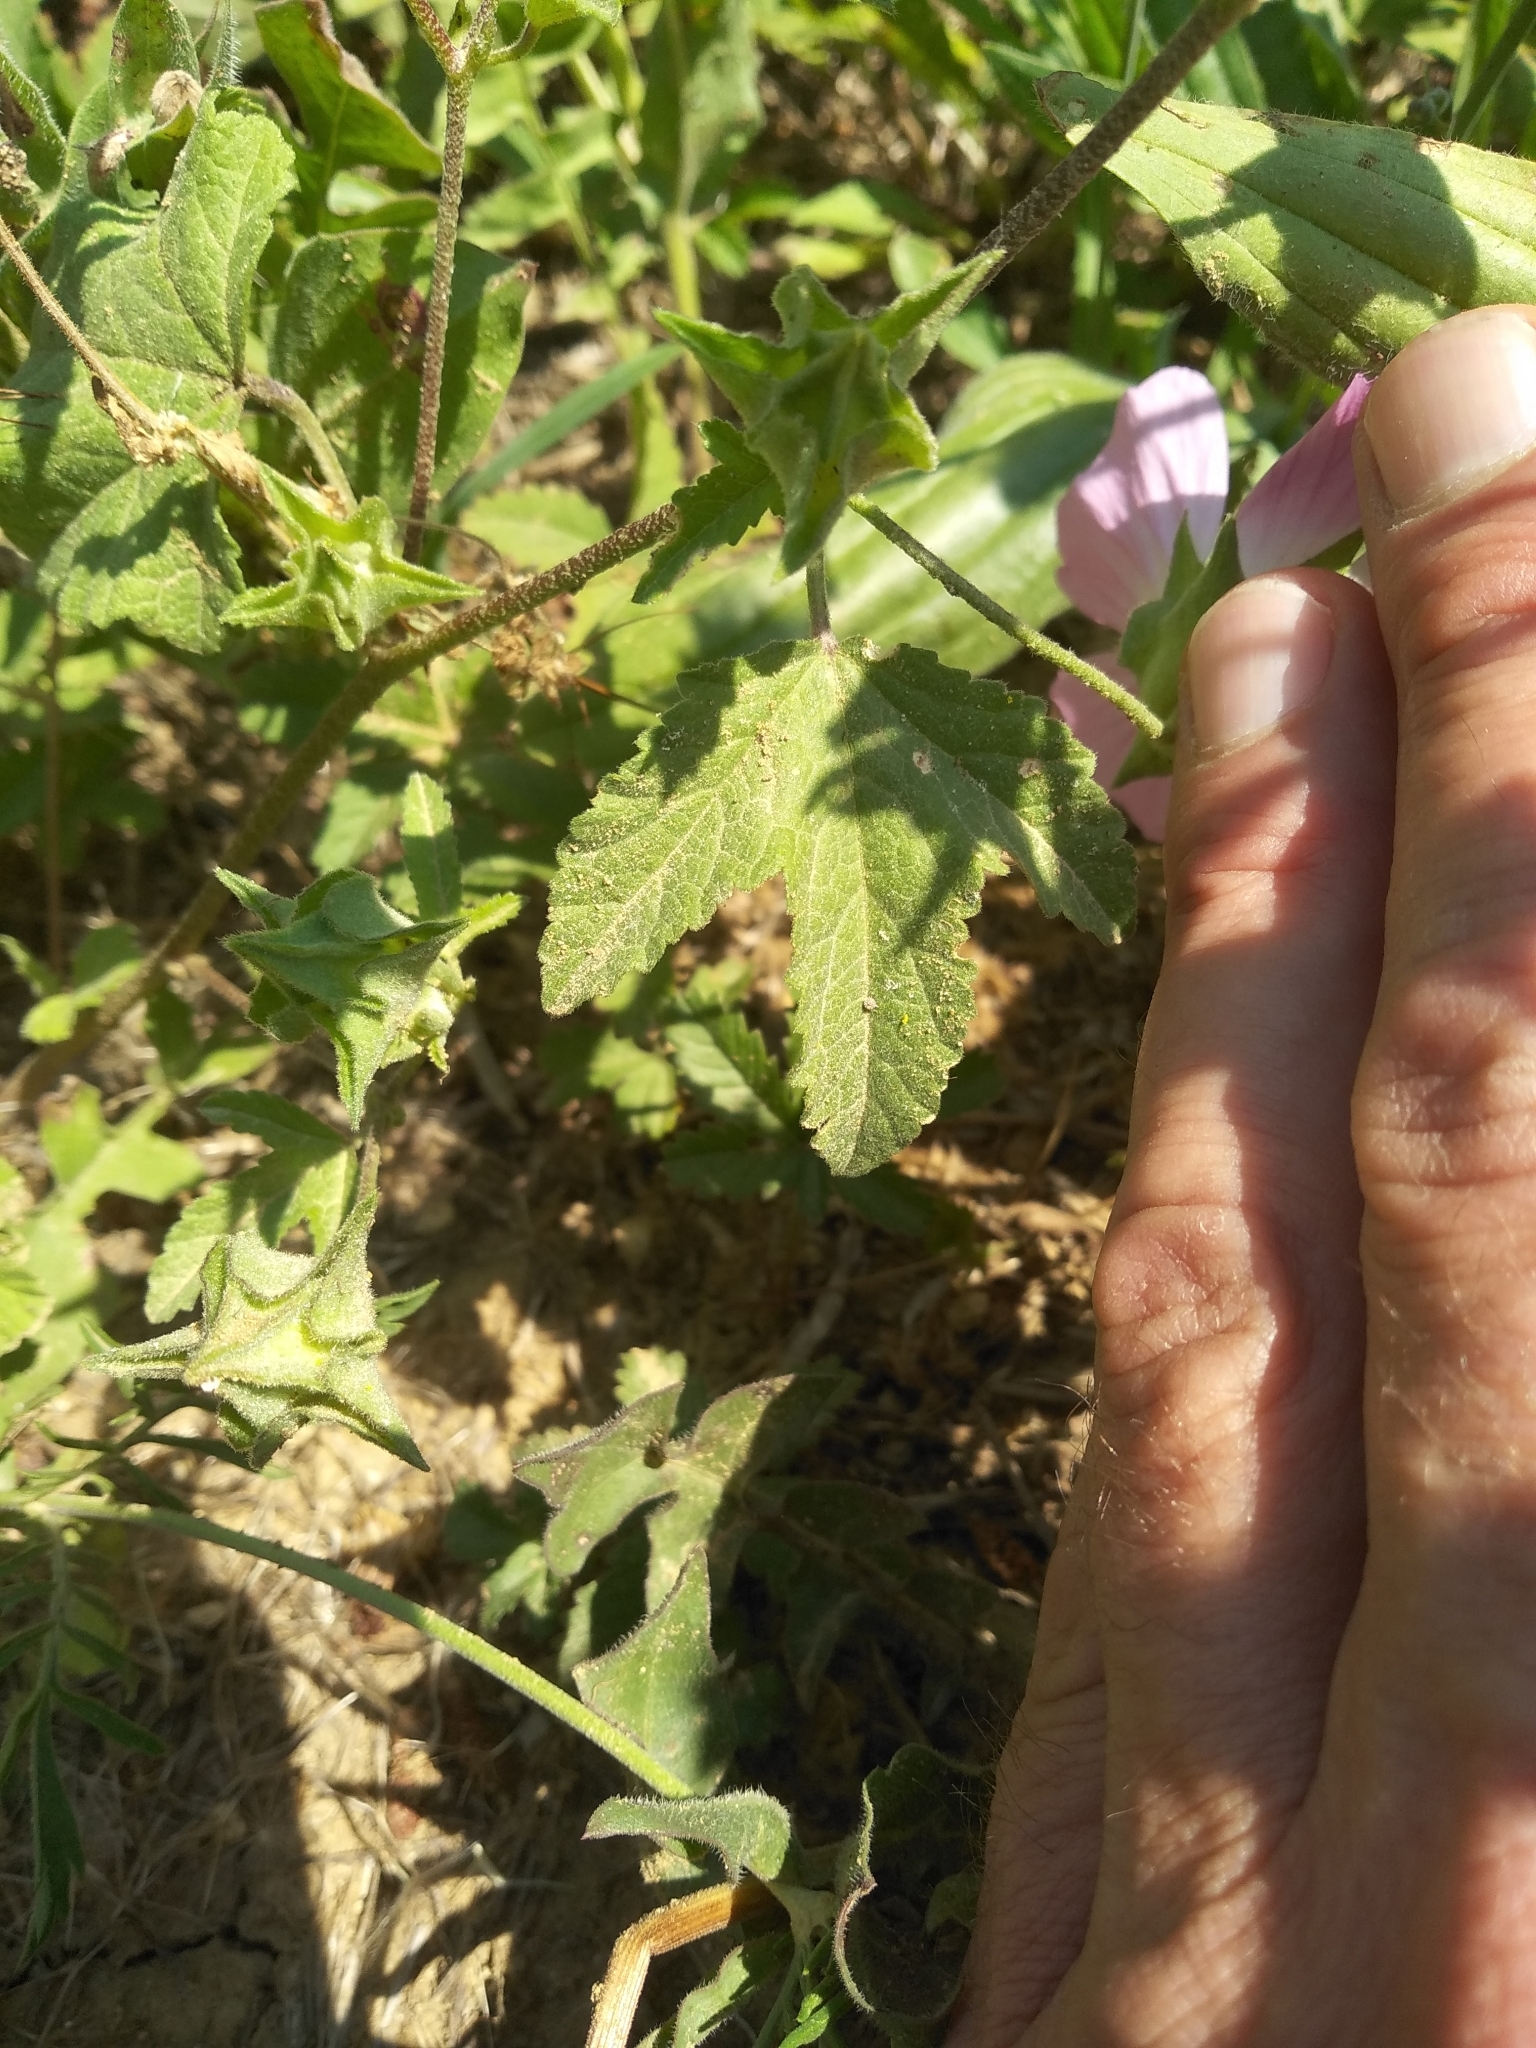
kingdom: Plantae
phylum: Tracheophyta
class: Magnoliopsida
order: Malvales
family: Malvaceae
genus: Malva
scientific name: Malva punctata
